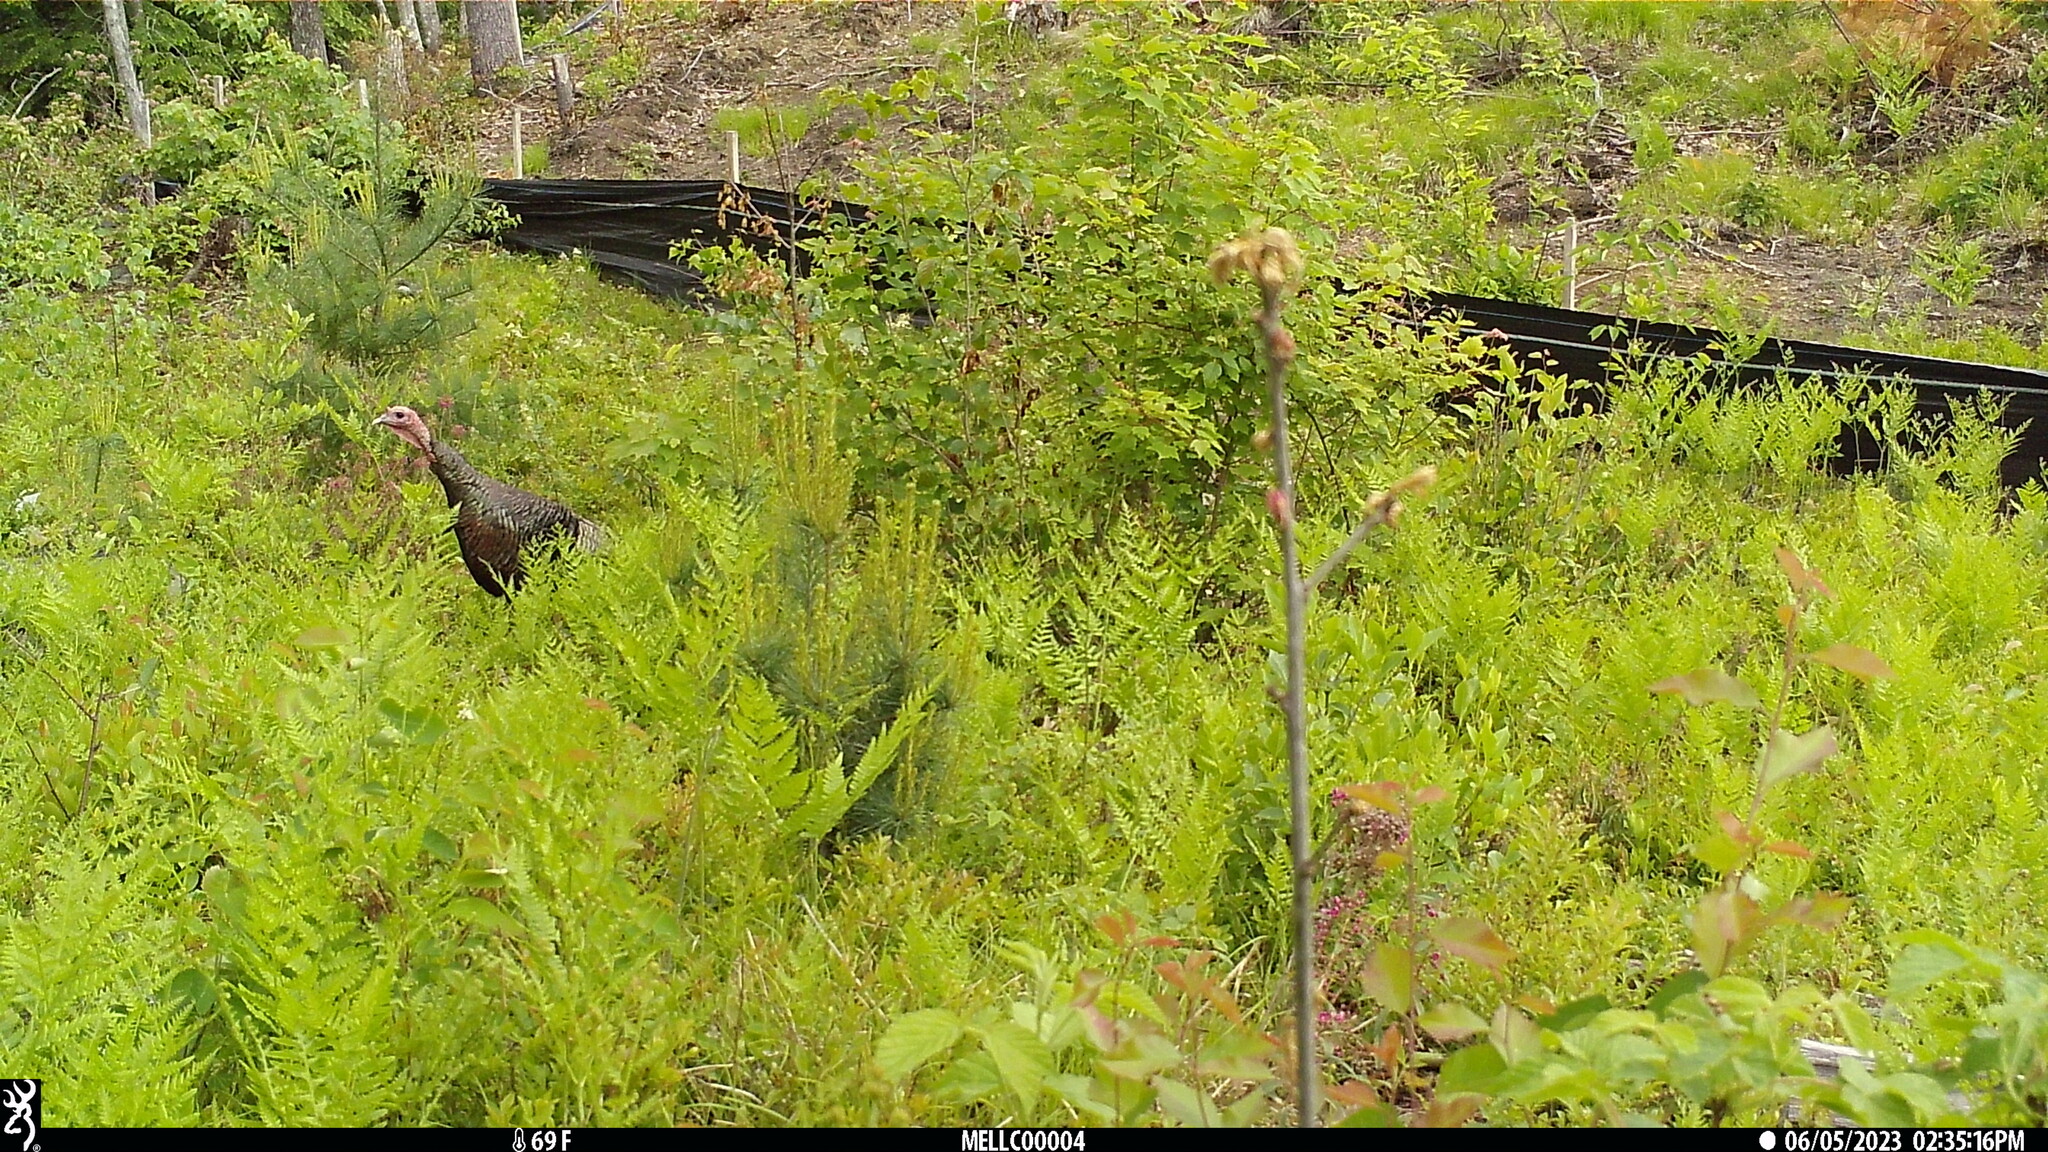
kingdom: Animalia
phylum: Chordata
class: Aves
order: Galliformes
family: Phasianidae
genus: Meleagris
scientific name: Meleagris gallopavo
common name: Wild turkey
